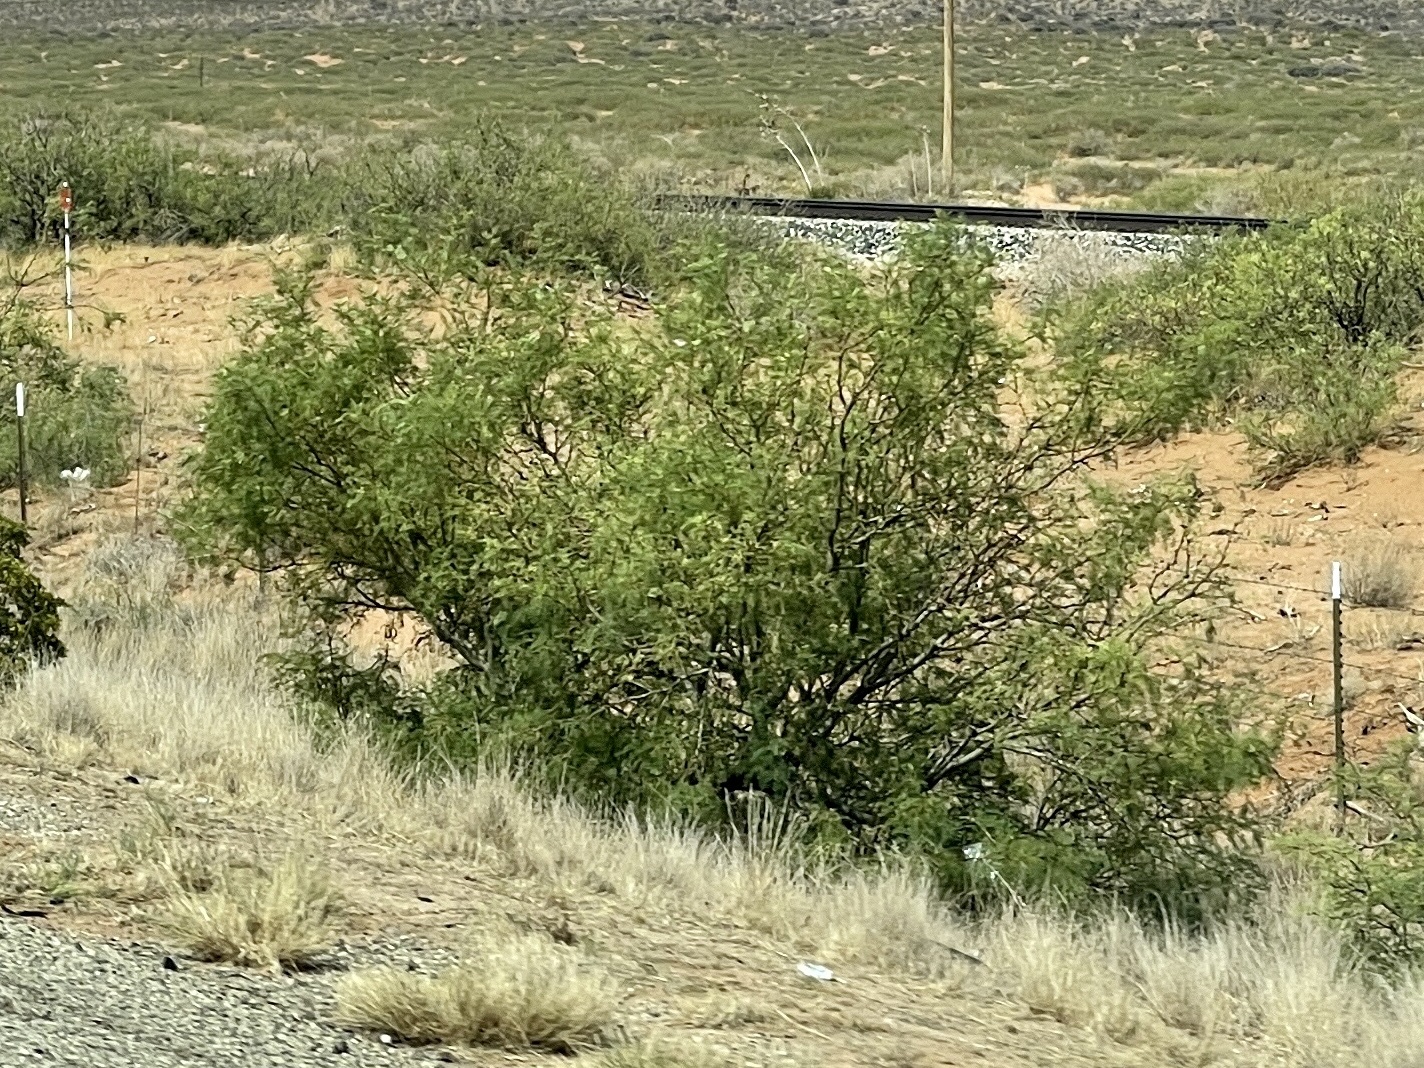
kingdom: Plantae
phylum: Tracheophyta
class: Magnoliopsida
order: Fabales
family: Fabaceae
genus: Prosopis
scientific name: Prosopis glandulosa
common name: Honey mesquite
